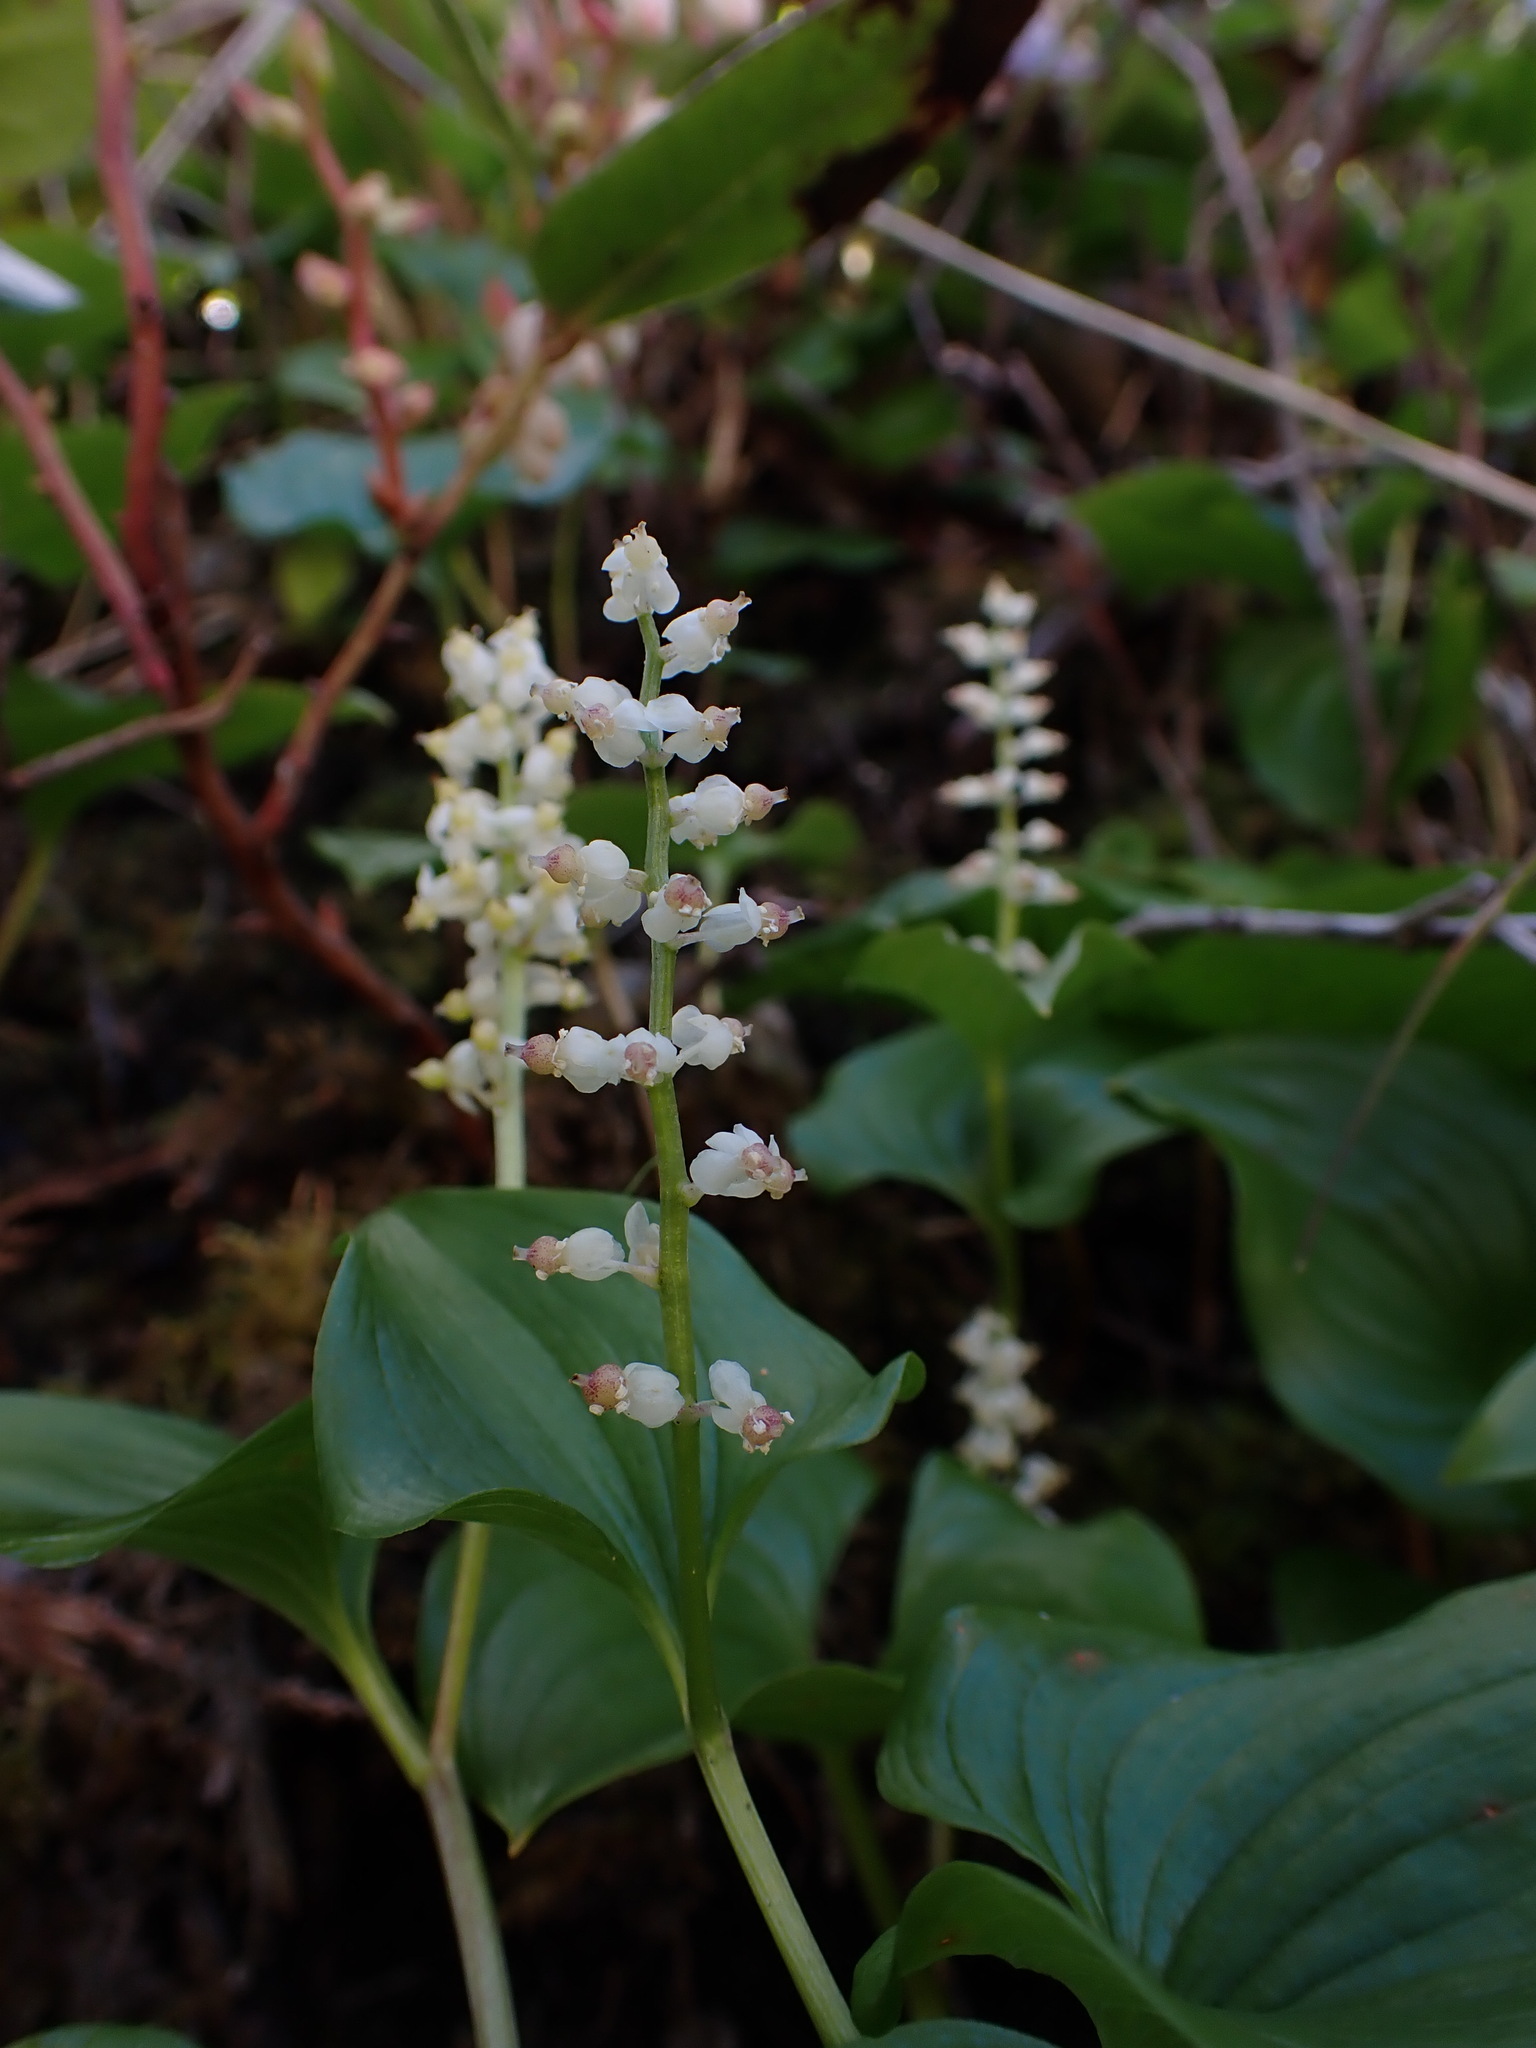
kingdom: Plantae
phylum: Tracheophyta
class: Liliopsida
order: Asparagales
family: Asparagaceae
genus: Maianthemum
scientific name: Maianthemum dilatatum
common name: False lily-of-the-valley
